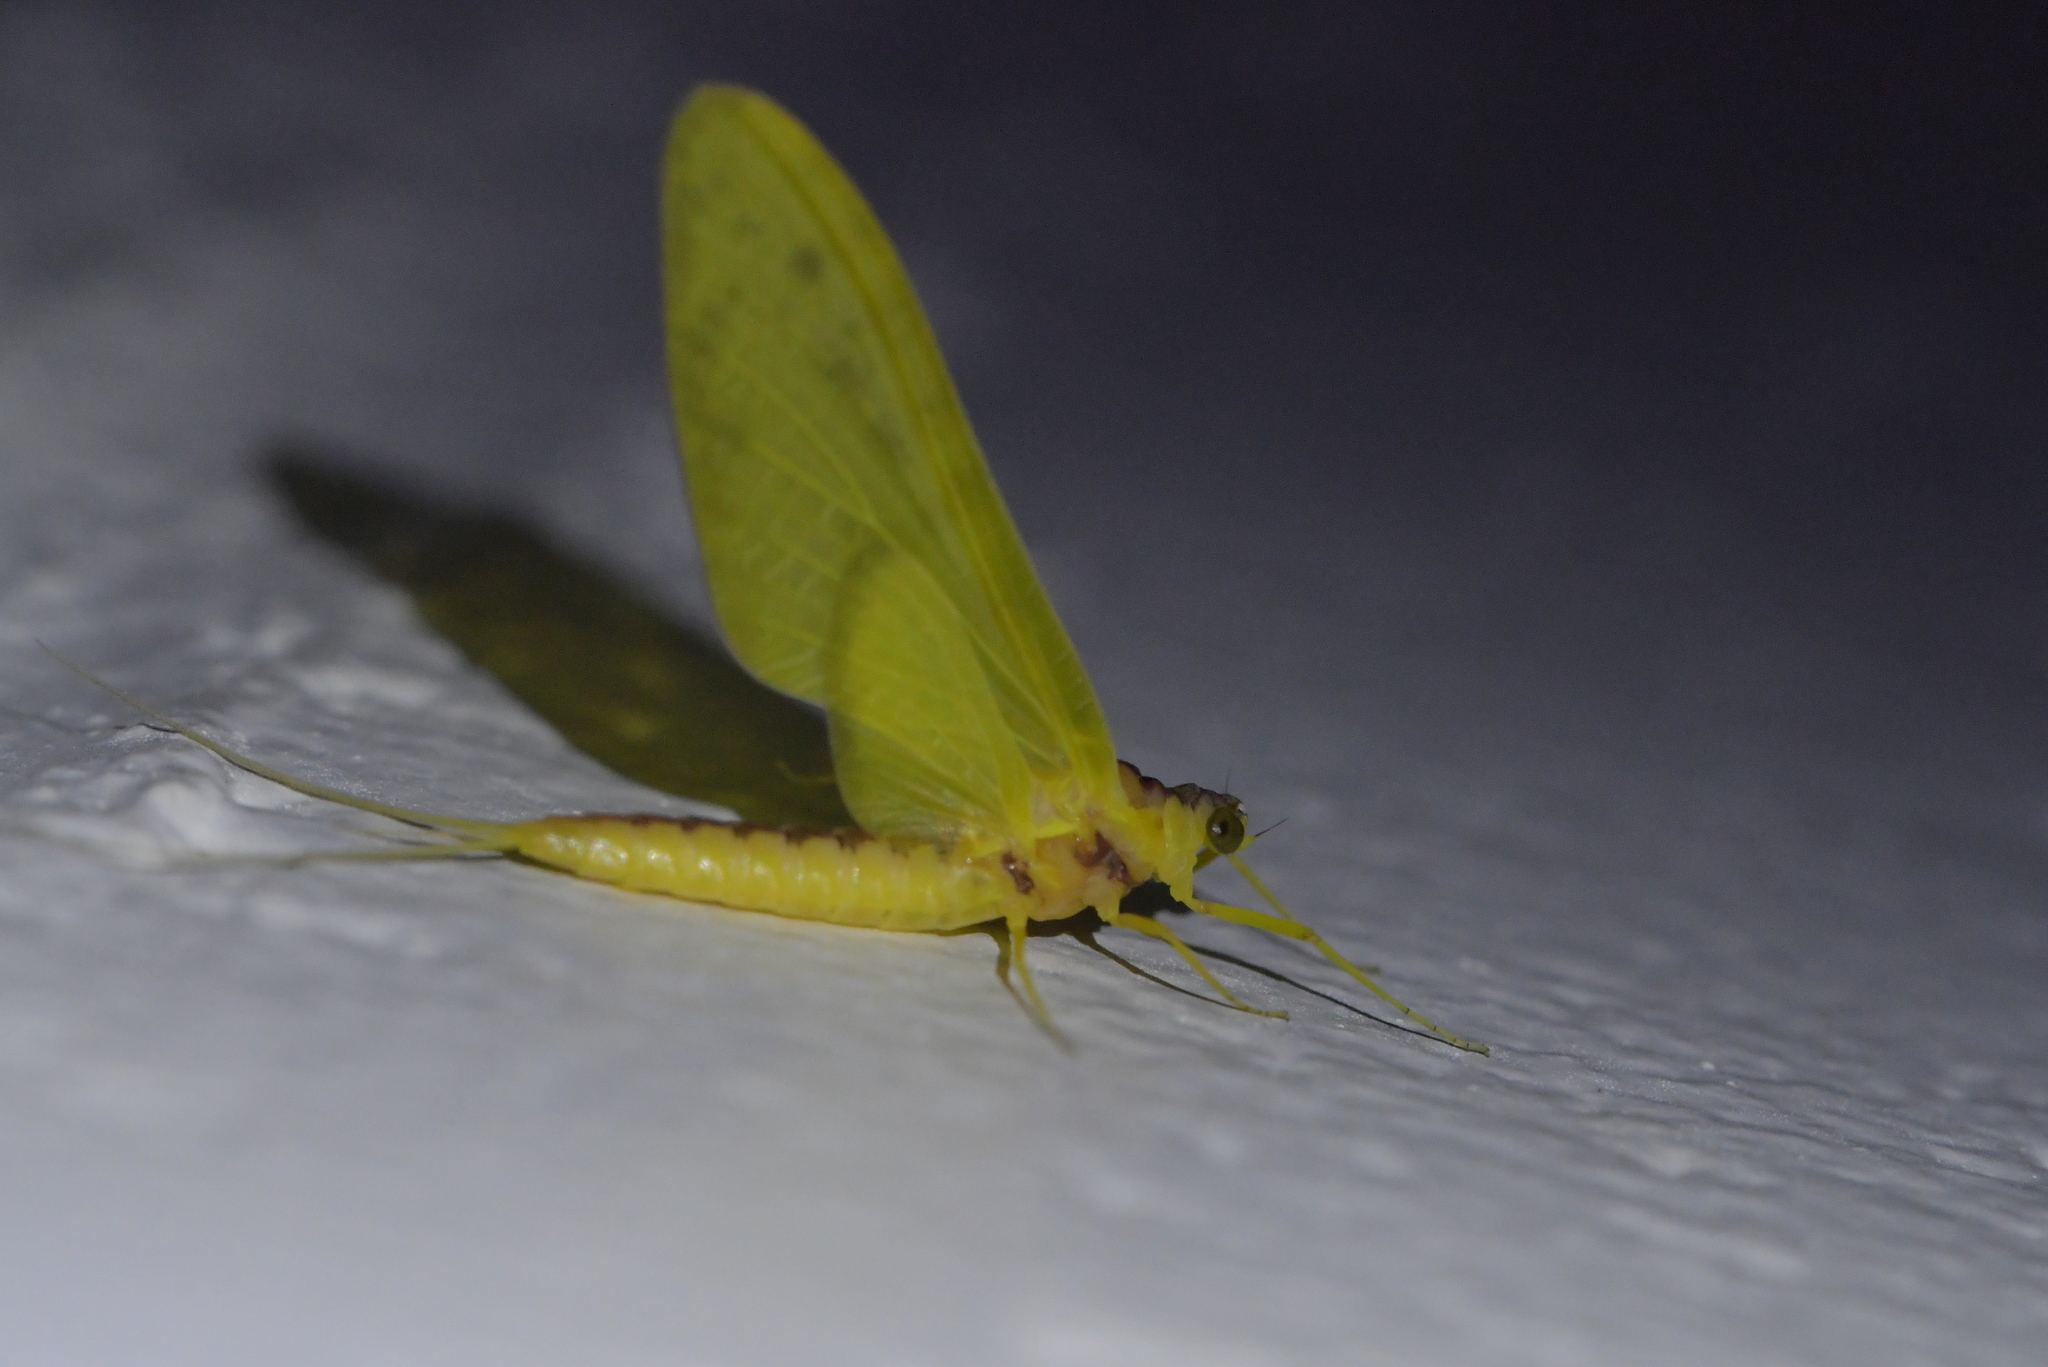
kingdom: Animalia
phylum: Arthropoda
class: Insecta
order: Ephemeroptera
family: Ameletopsidae
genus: Ameletopsis
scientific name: Ameletopsis perscitus
